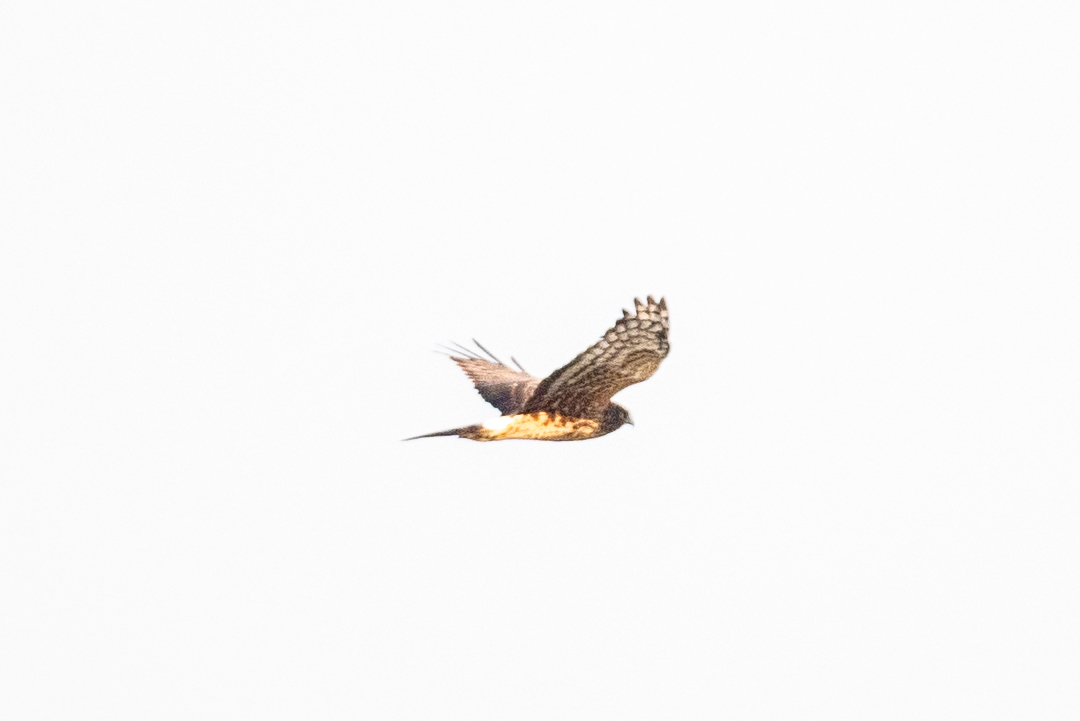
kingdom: Animalia
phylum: Chordata
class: Aves
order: Accipitriformes
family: Accipitridae
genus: Circus
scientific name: Circus cyaneus
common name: Hen harrier
